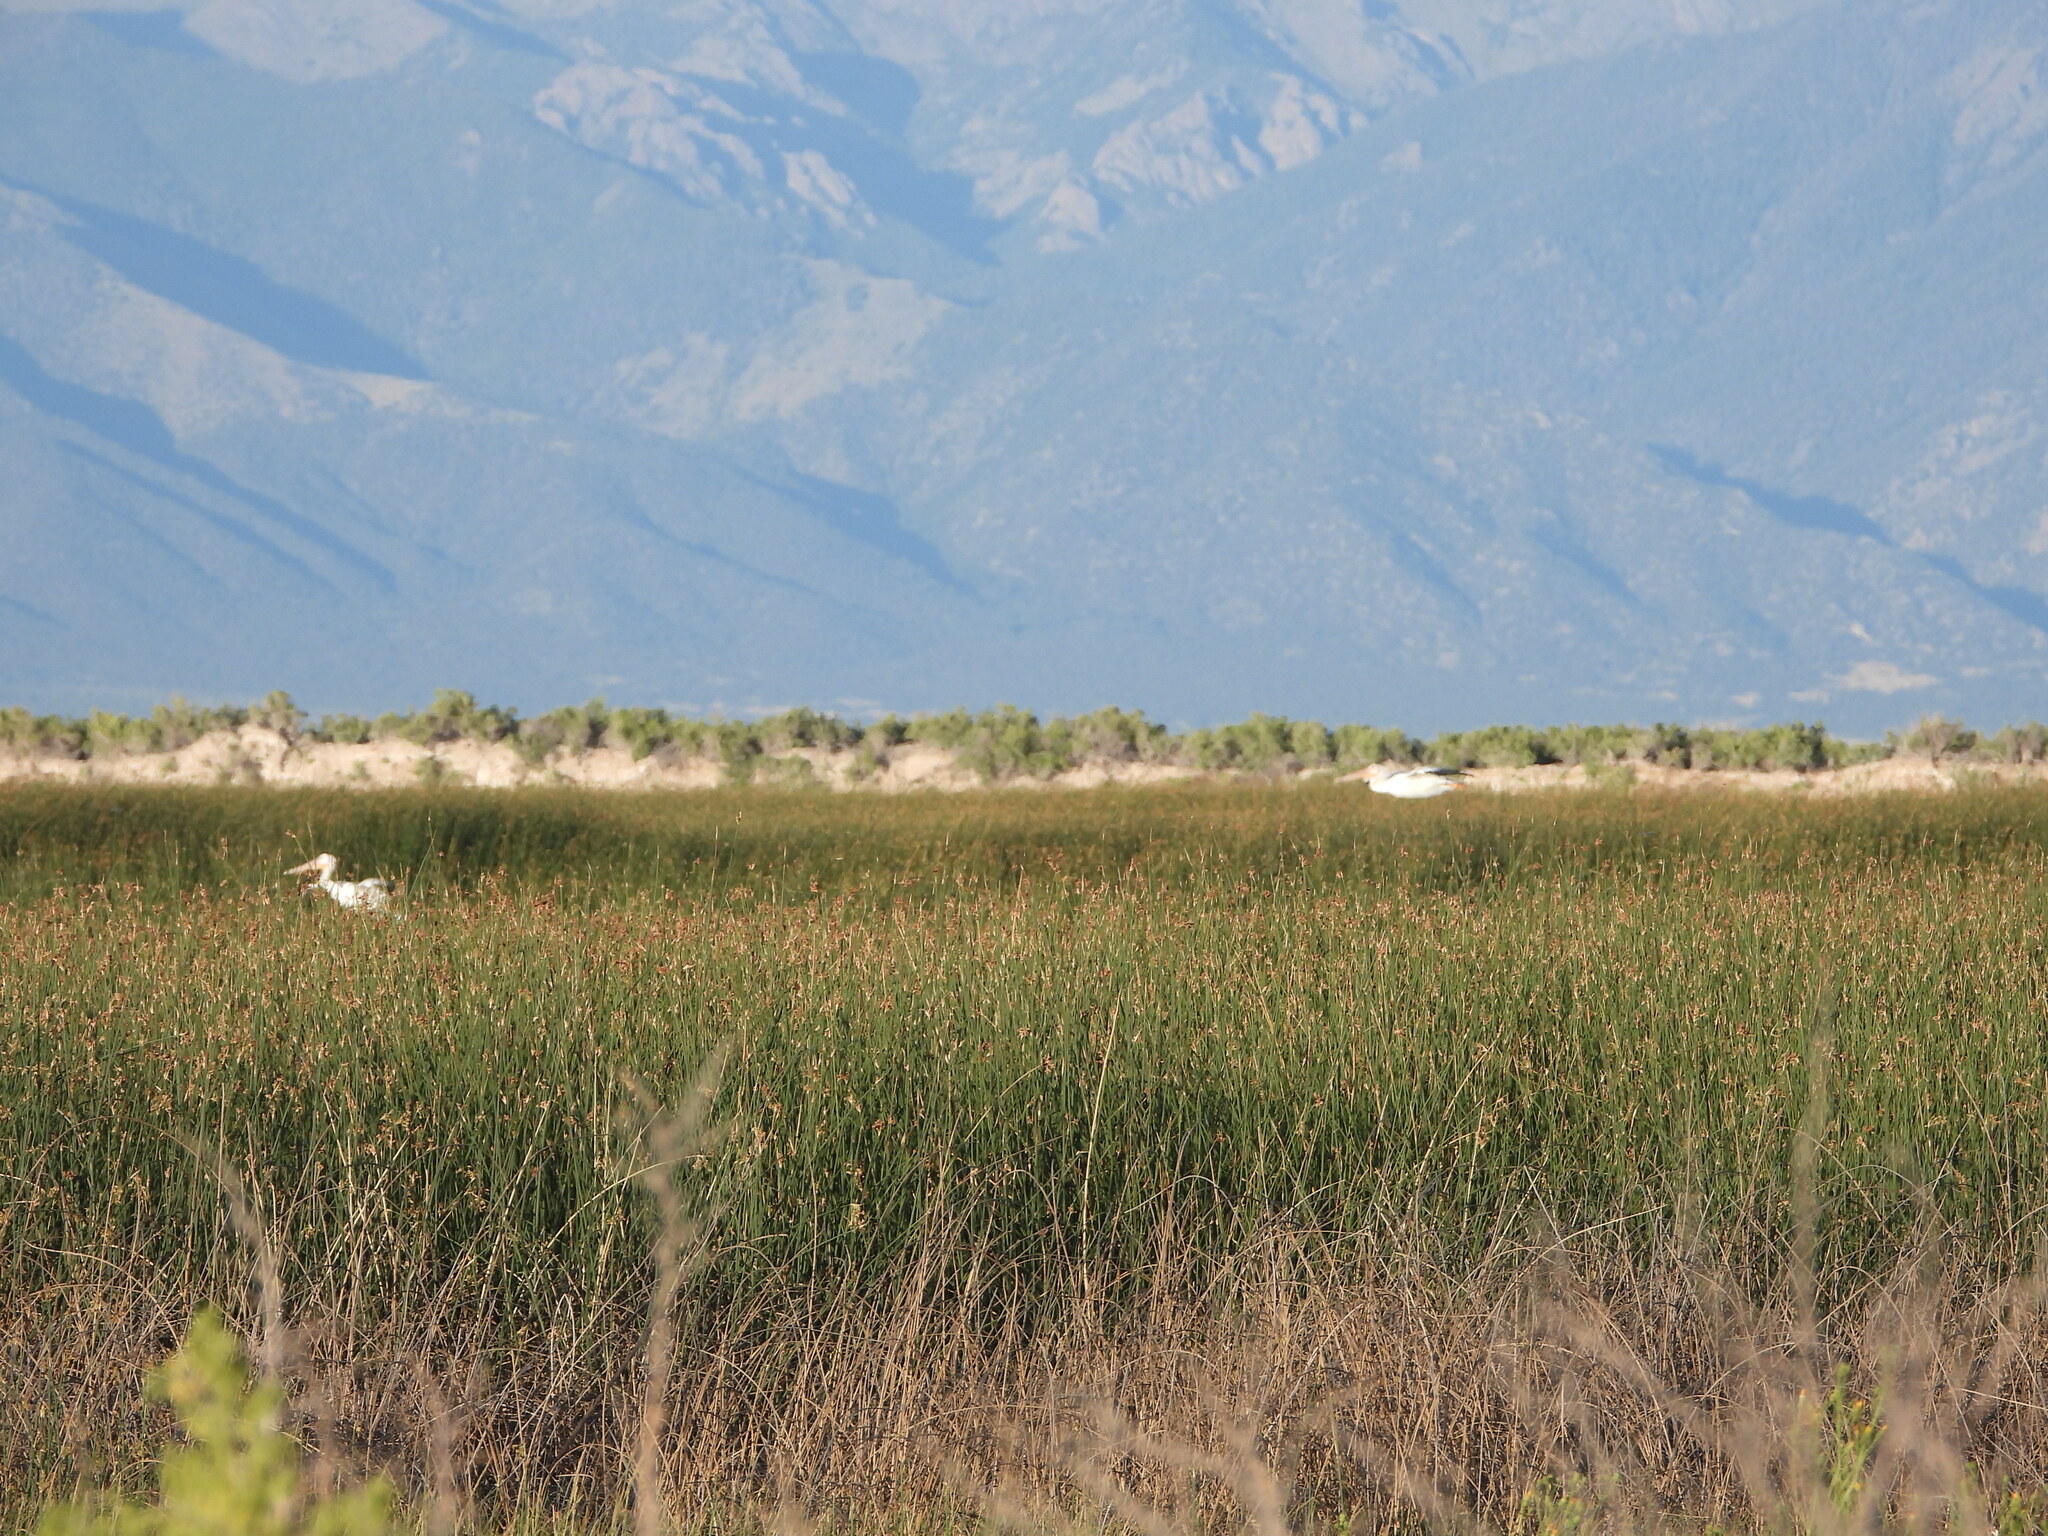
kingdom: Animalia
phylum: Chordata
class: Aves
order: Pelecaniformes
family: Pelecanidae
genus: Pelecanus
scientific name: Pelecanus erythrorhynchos
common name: American white pelican
